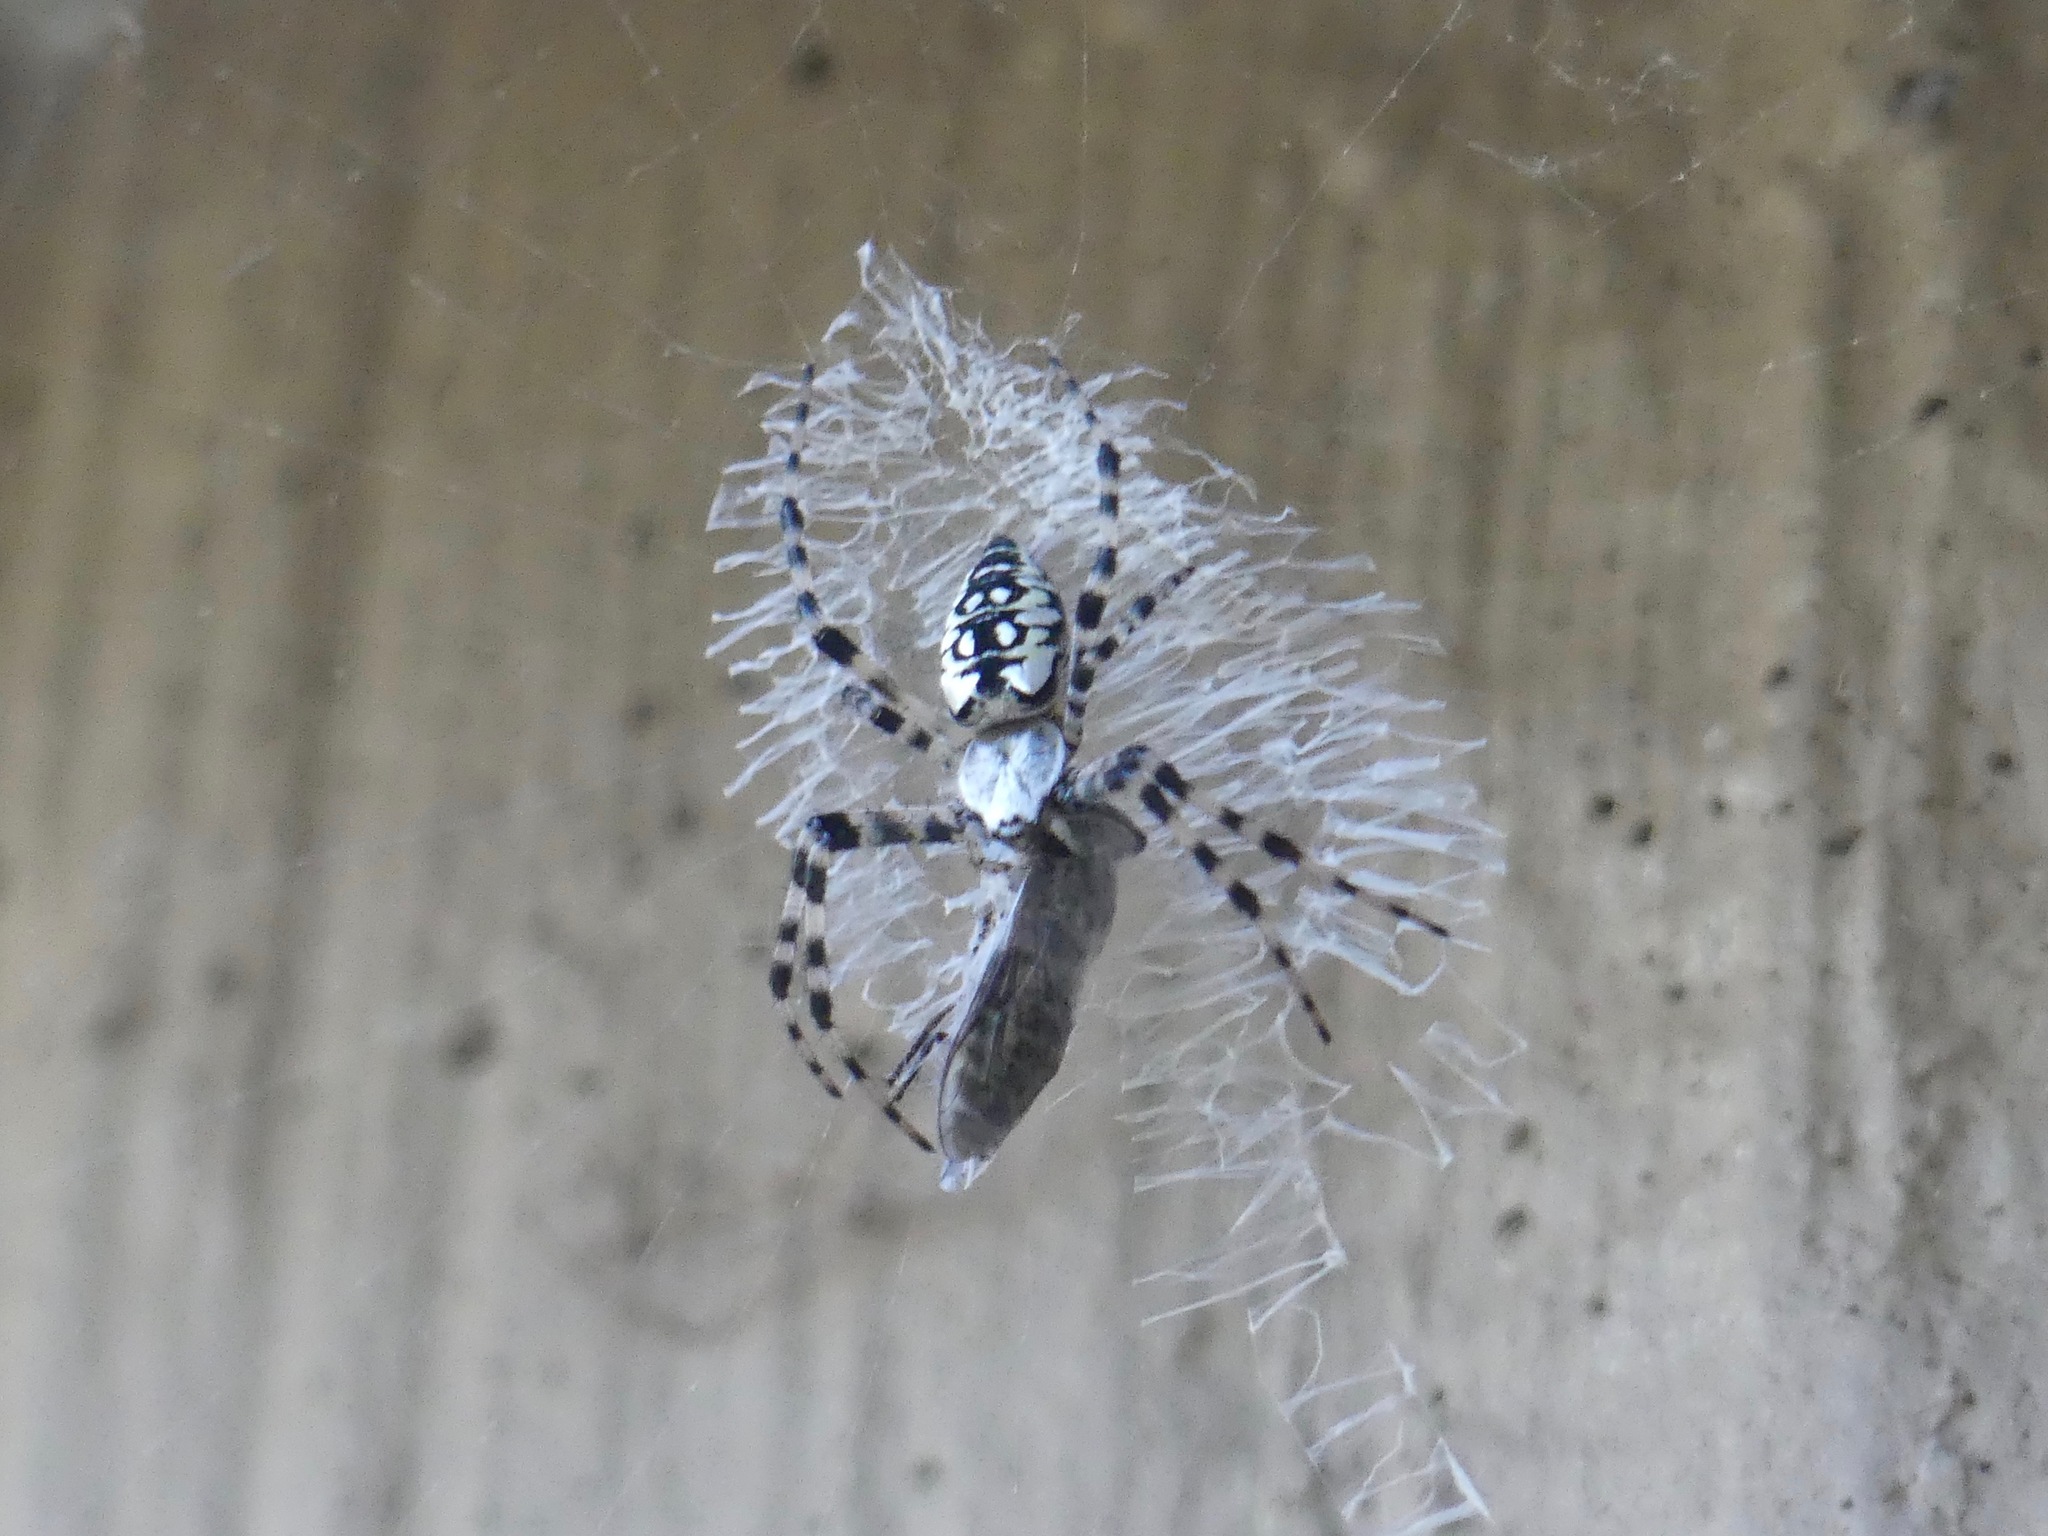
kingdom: Animalia
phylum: Arthropoda
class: Arachnida
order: Araneae
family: Araneidae
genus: Argiope
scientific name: Argiope aurantia
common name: Orb weavers
